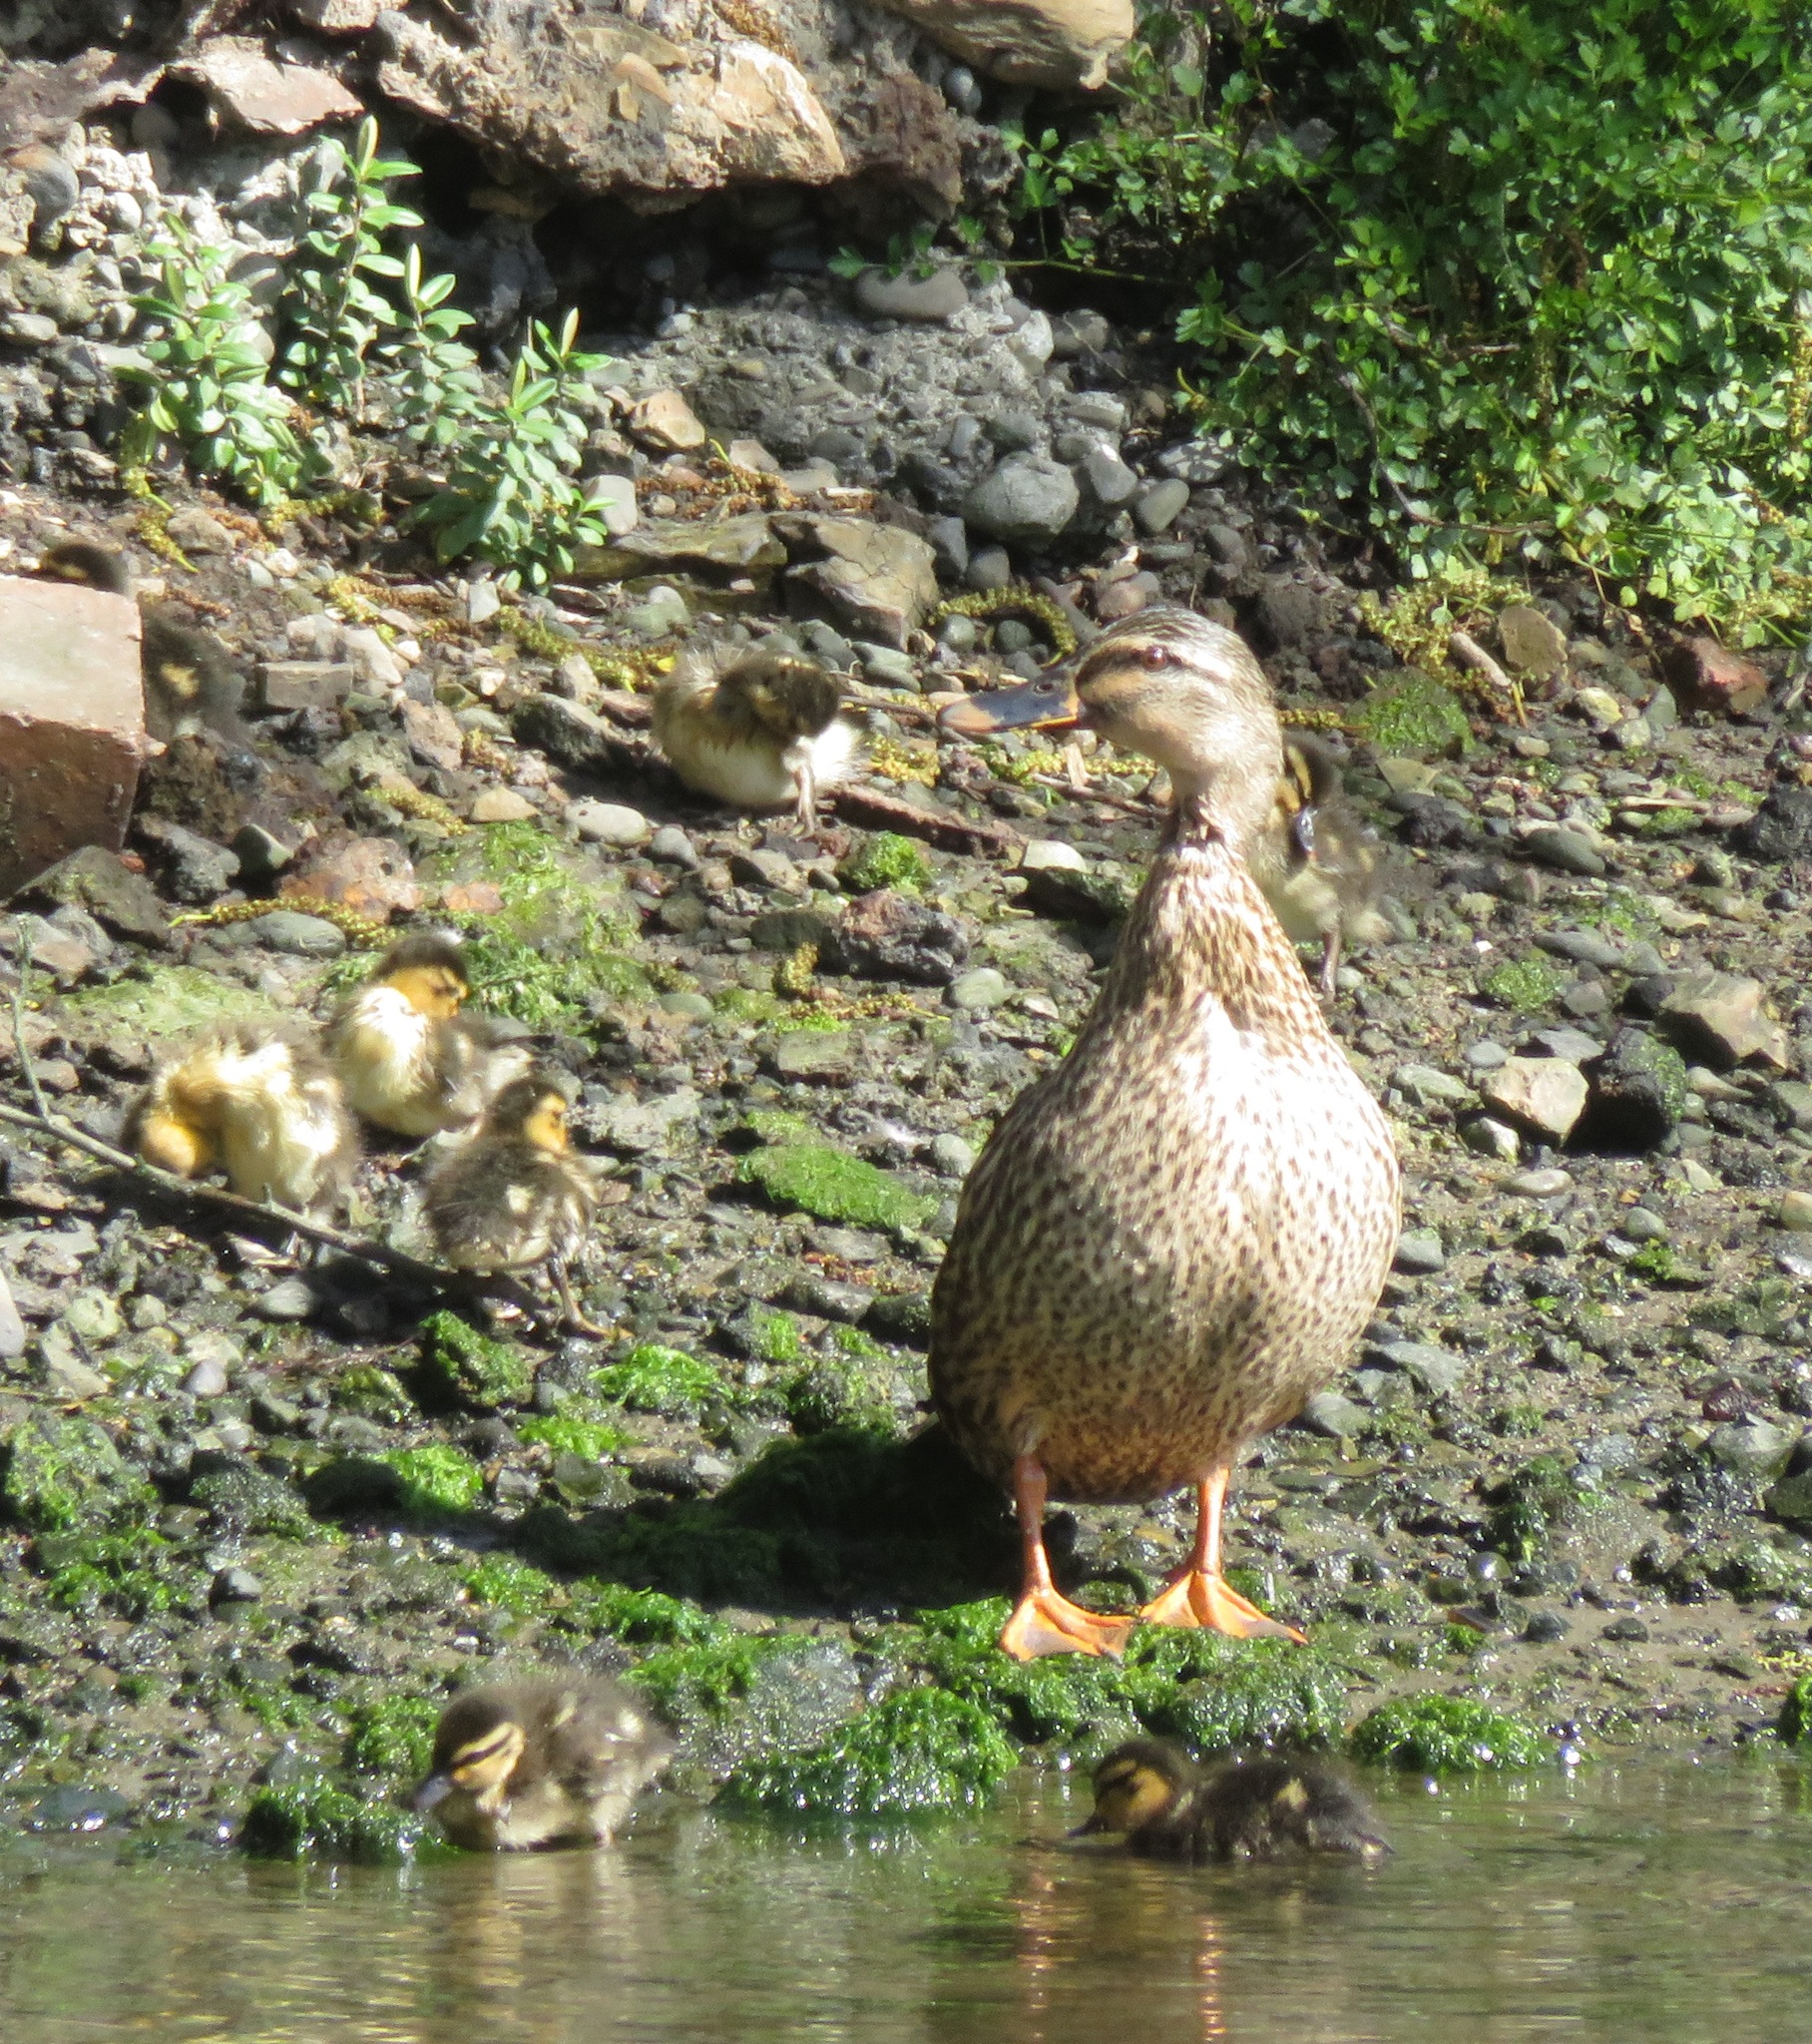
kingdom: Animalia
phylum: Chordata
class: Aves
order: Anseriformes
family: Anatidae
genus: Anas
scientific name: Anas
